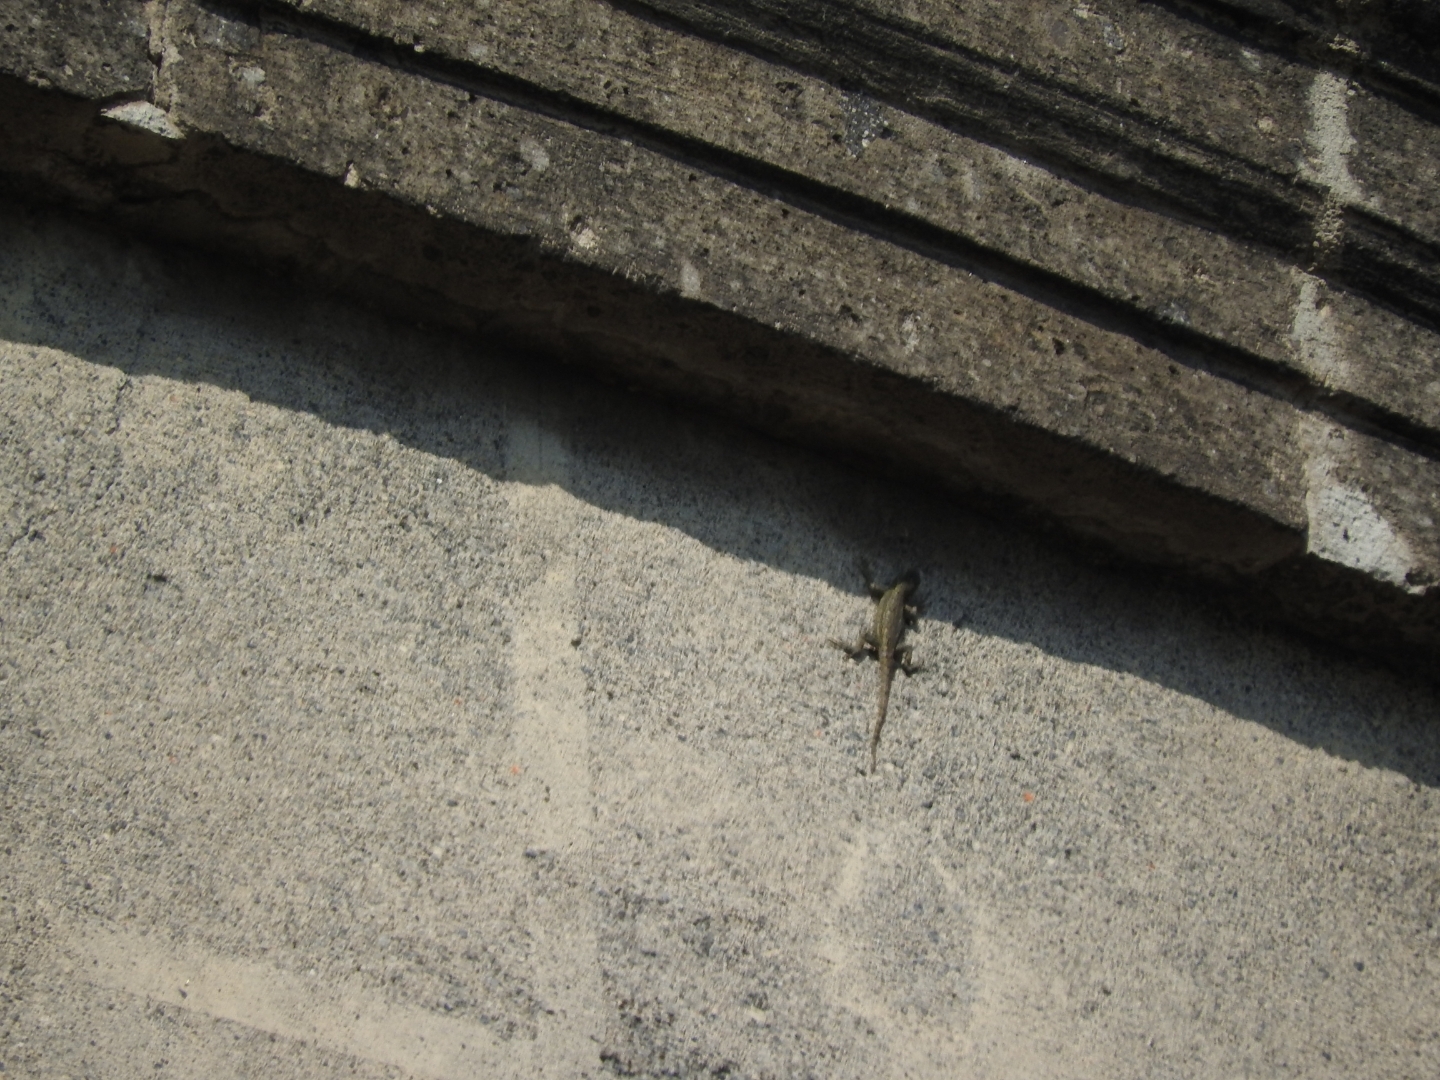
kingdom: Animalia
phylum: Chordata
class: Squamata
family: Phrynosomatidae
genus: Sceloporus
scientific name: Sceloporus spinosus
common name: Blue-spotted spiny lizard [caeruleopunctatus]
